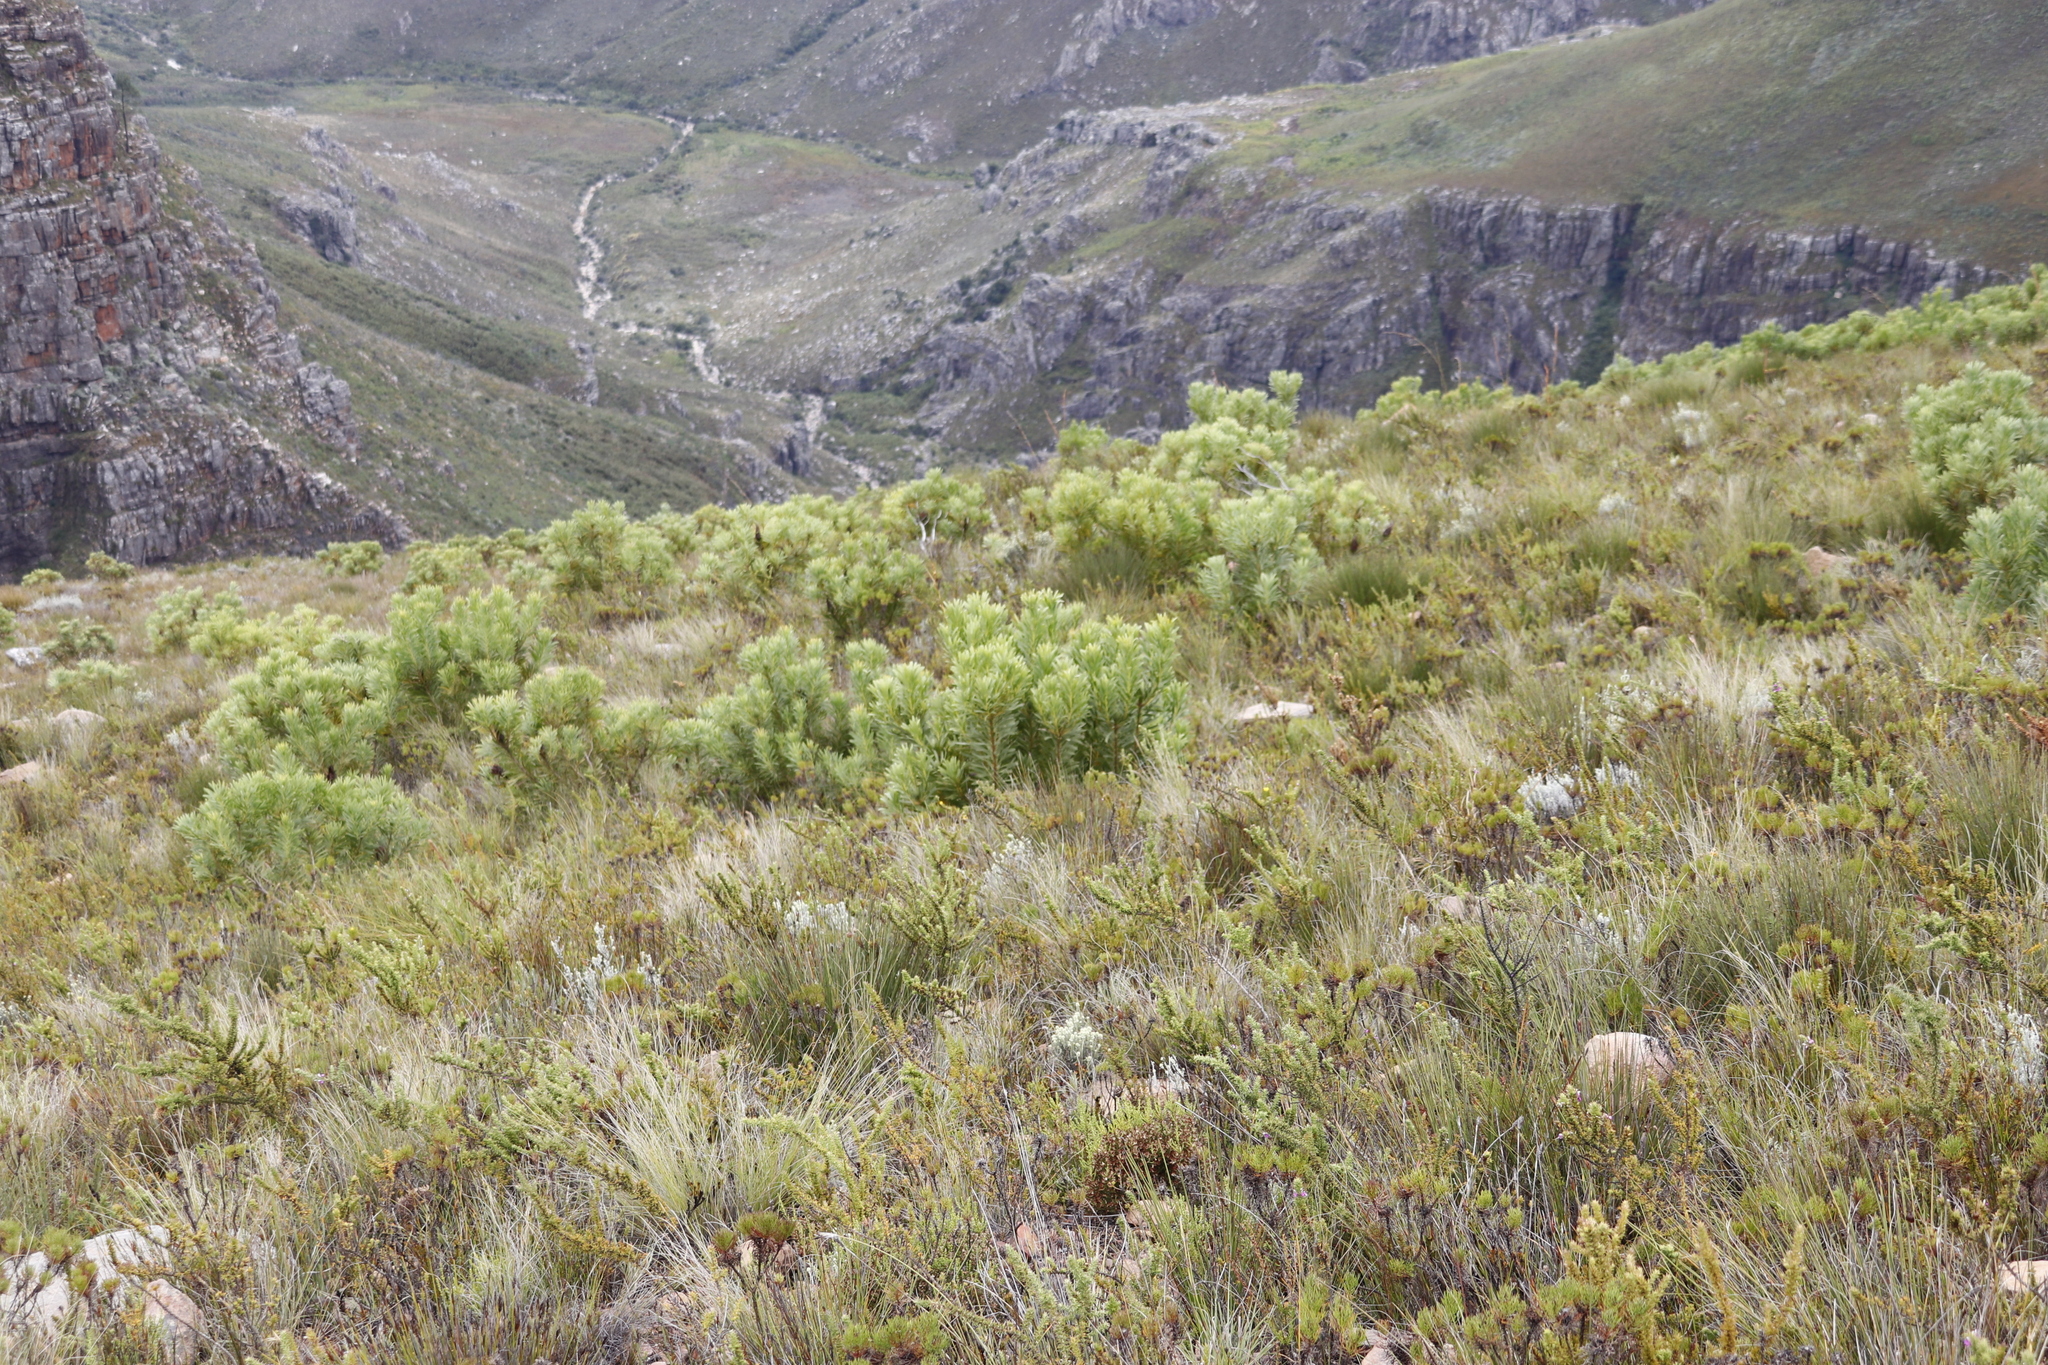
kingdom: Plantae
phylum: Tracheophyta
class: Magnoliopsida
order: Proteales
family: Proteaceae
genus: Protea
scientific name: Protea repens
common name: Sugarbush
